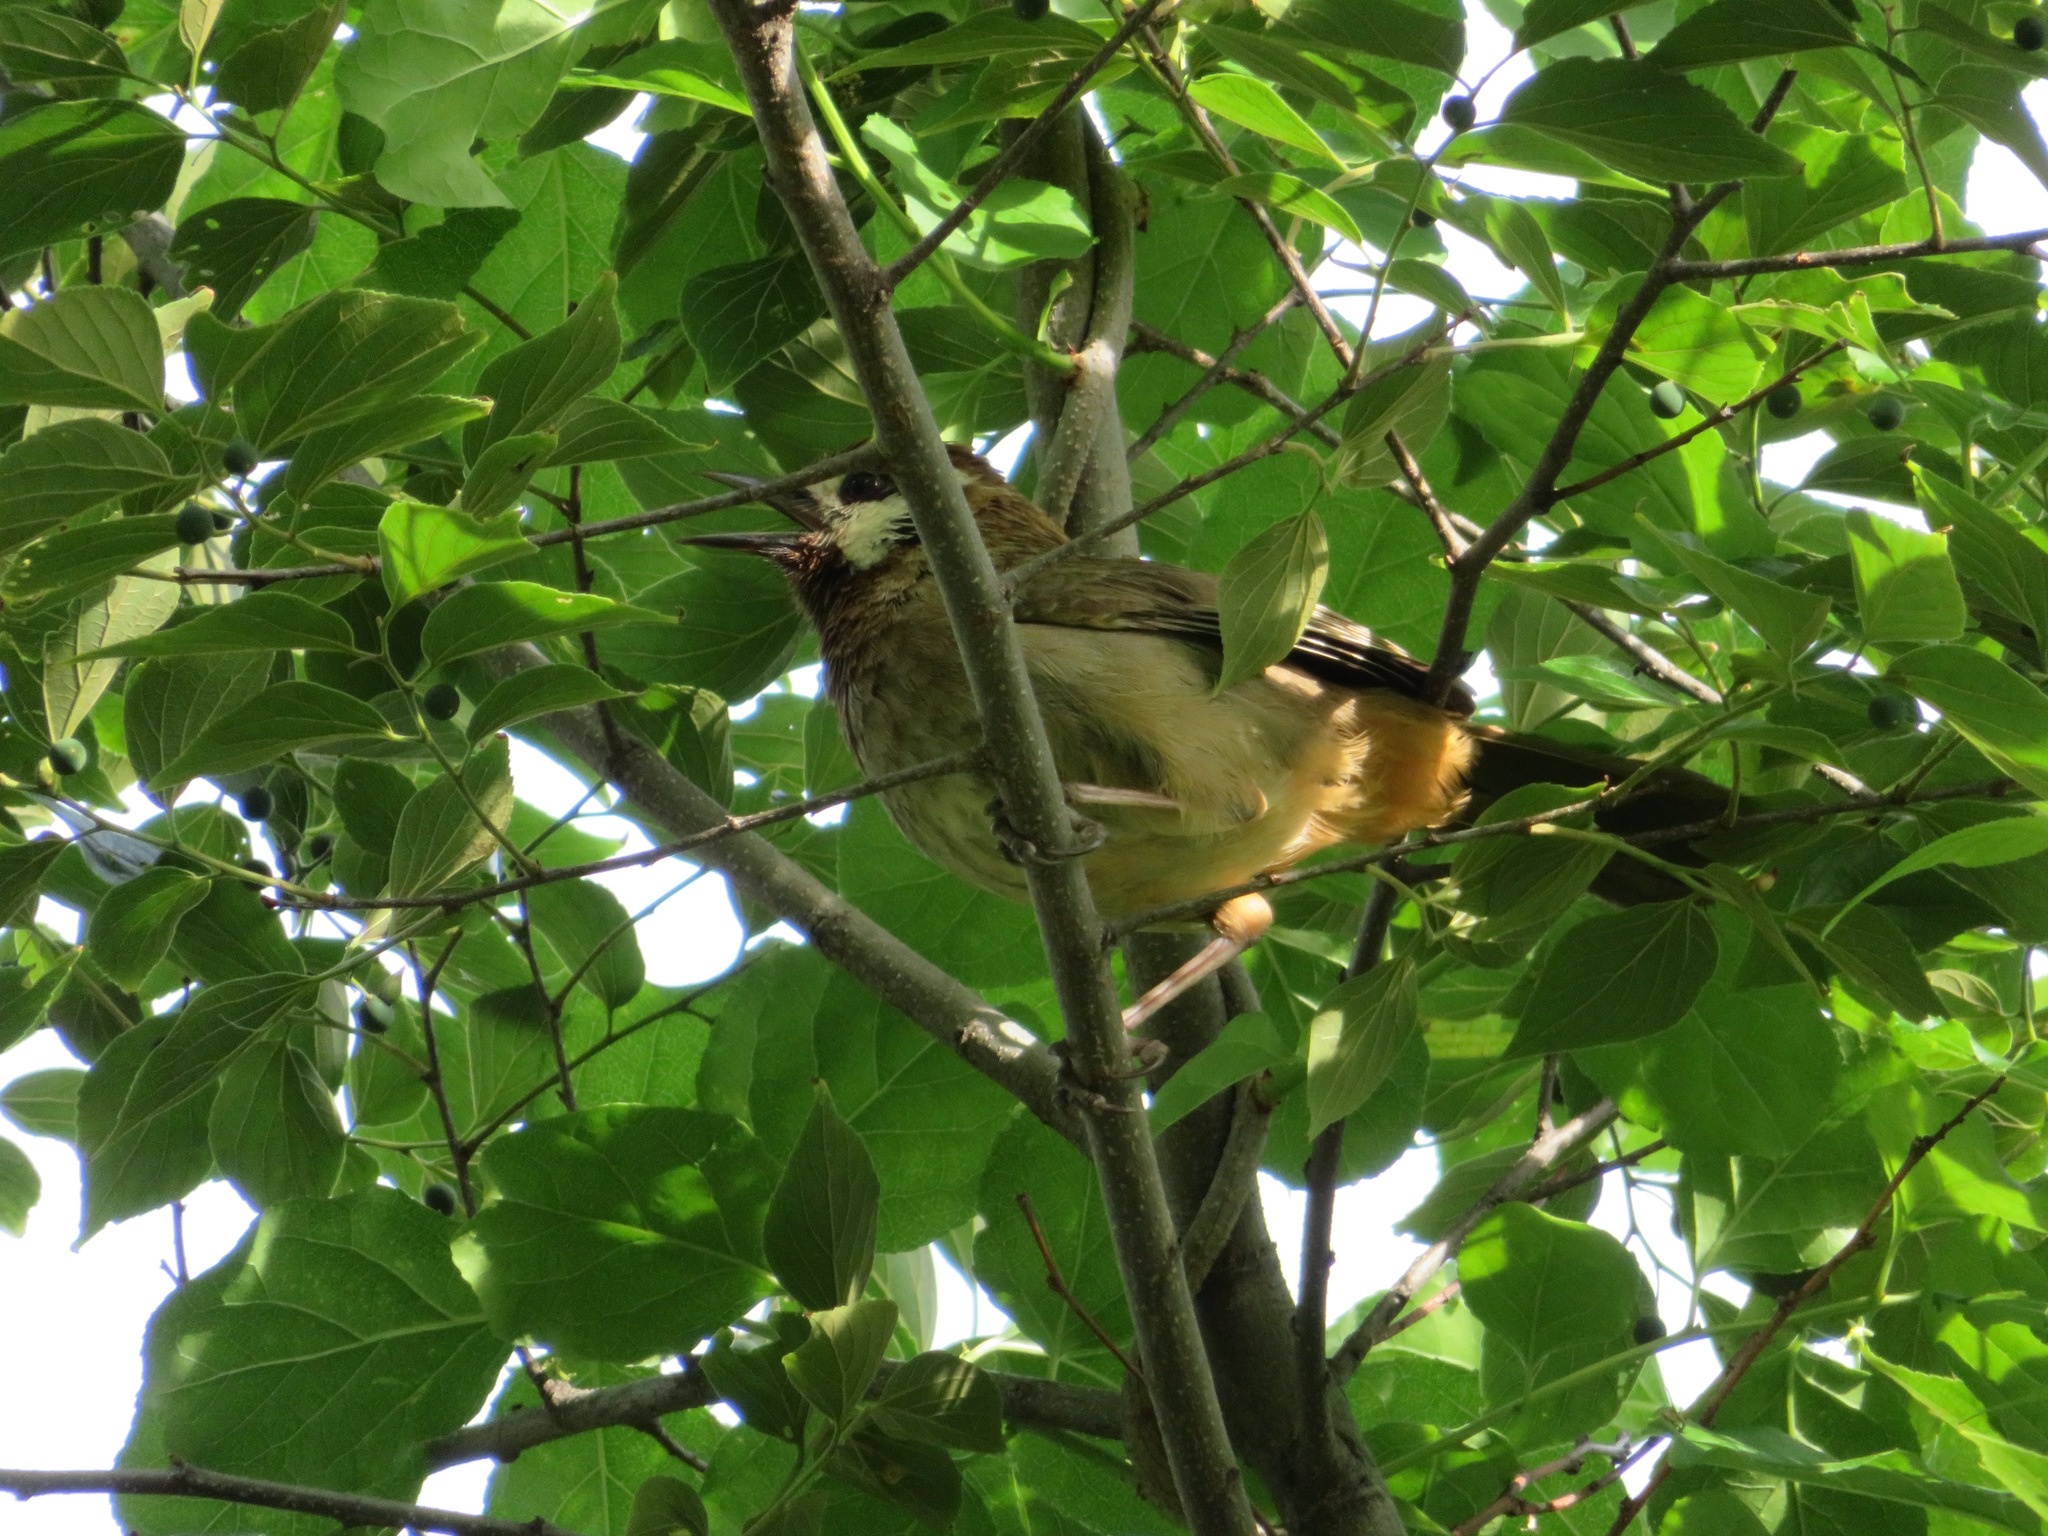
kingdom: Animalia
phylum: Chordata
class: Aves
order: Passeriformes
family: Leiothrichidae
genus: Pterorhinus
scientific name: Pterorhinus sannio
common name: White-browed laughingthrush
